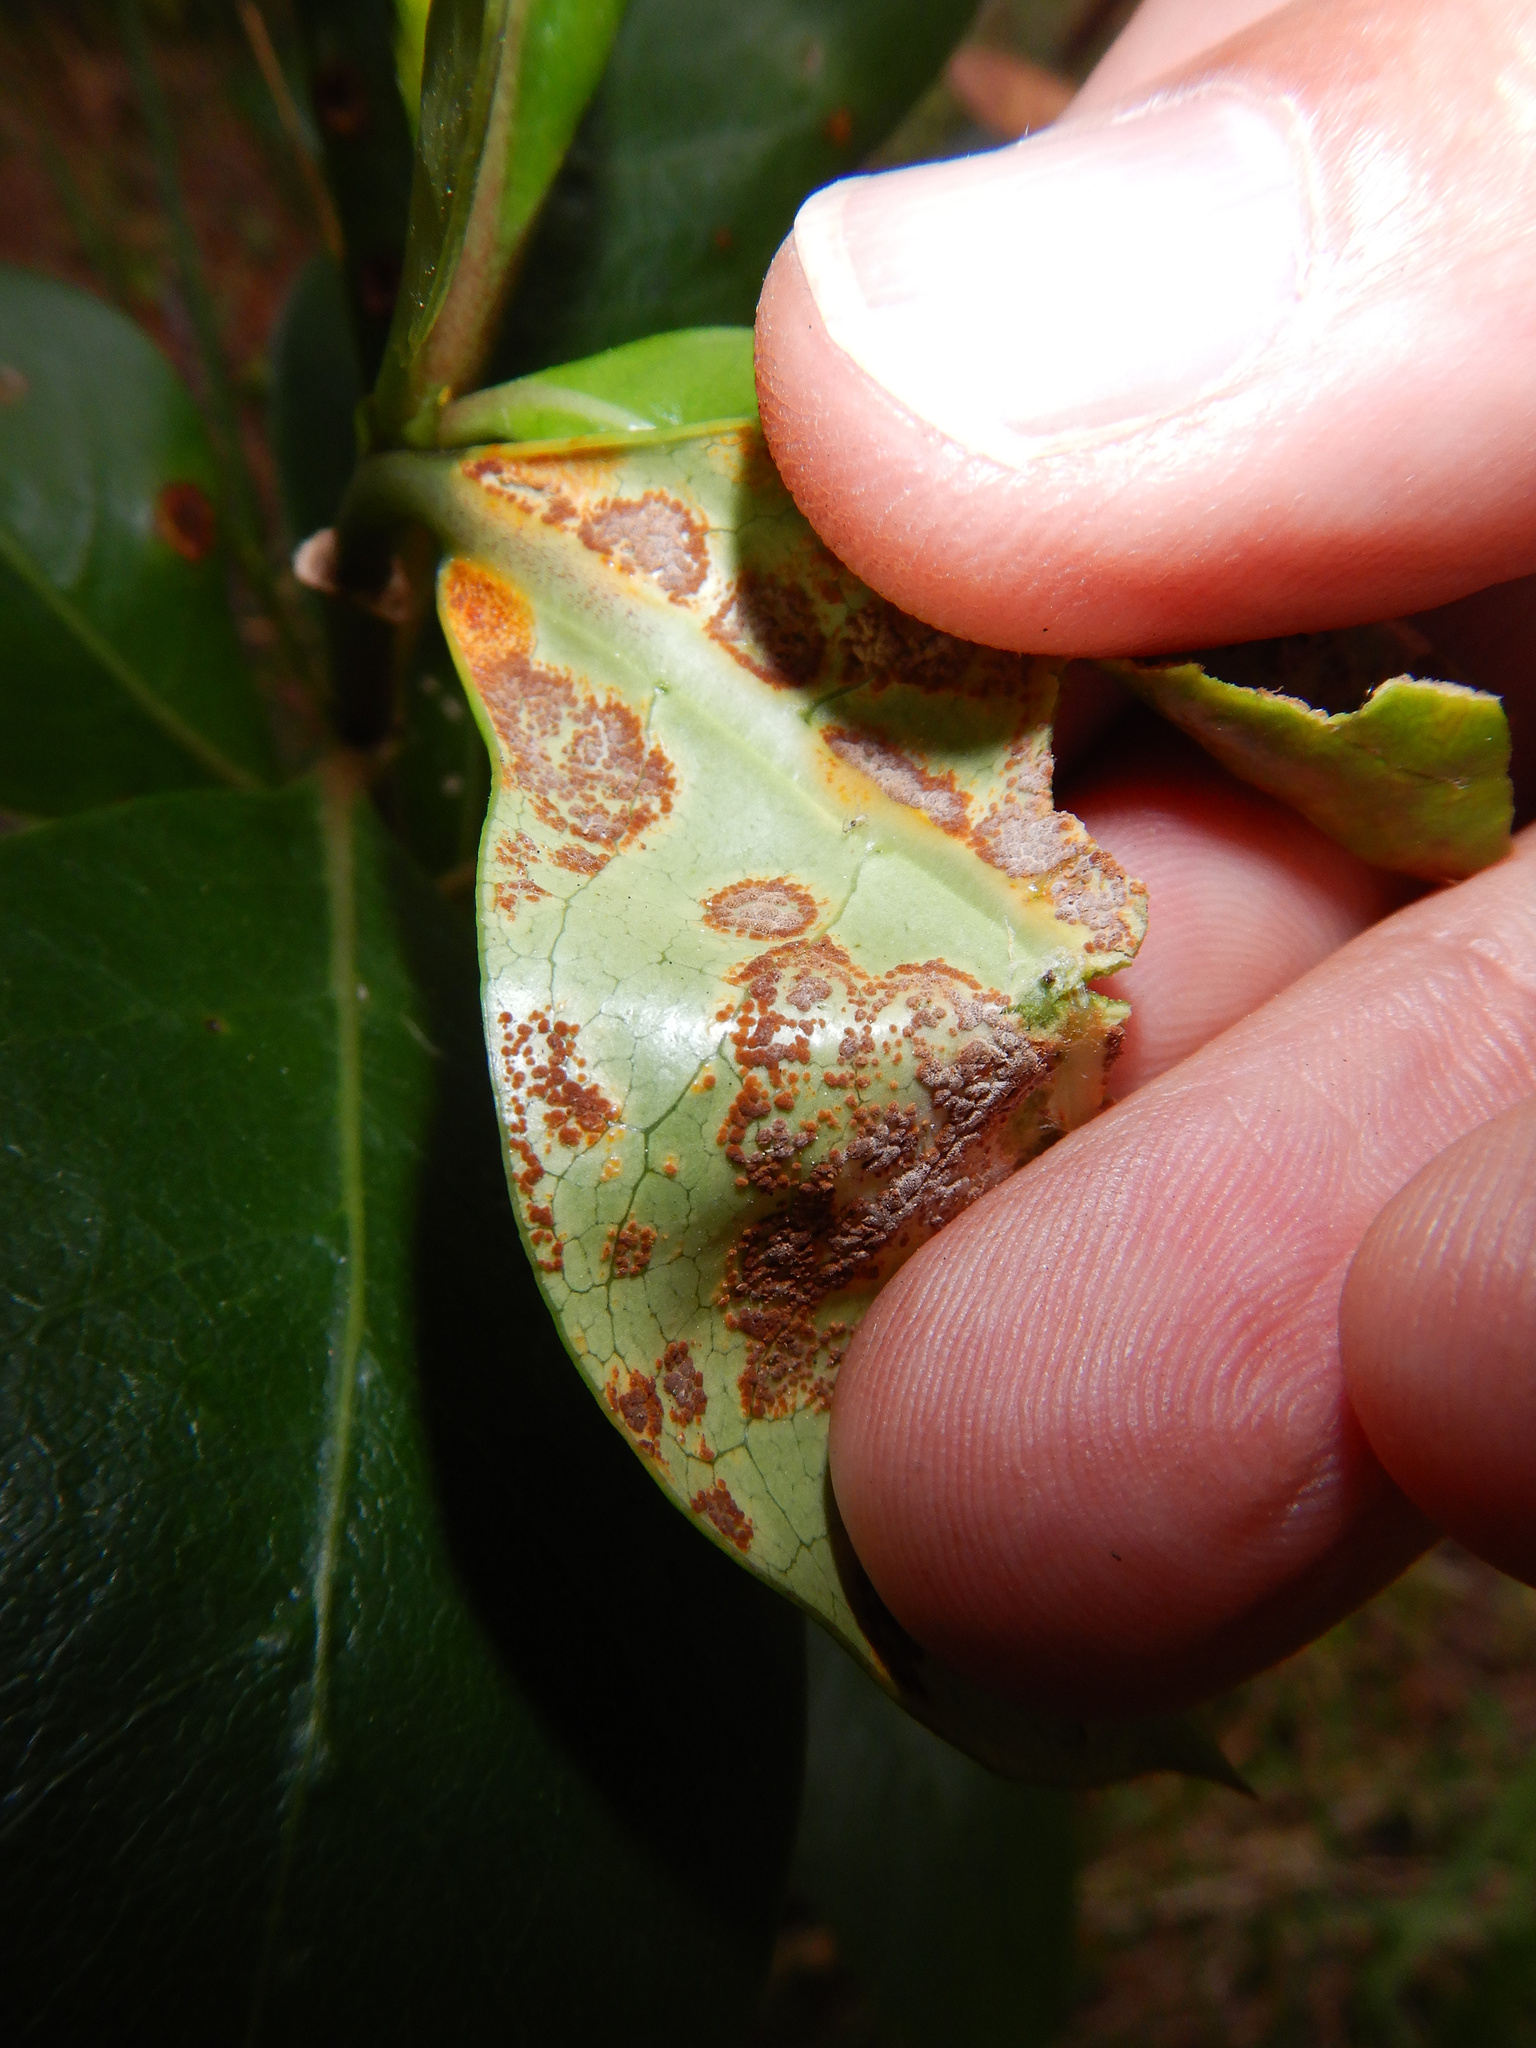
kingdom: Fungi
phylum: Basidiomycota
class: Pucciniomycetes
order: Pucciniales
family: Pucciniaceae
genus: Puccinia
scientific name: Puccinia coprosmae
